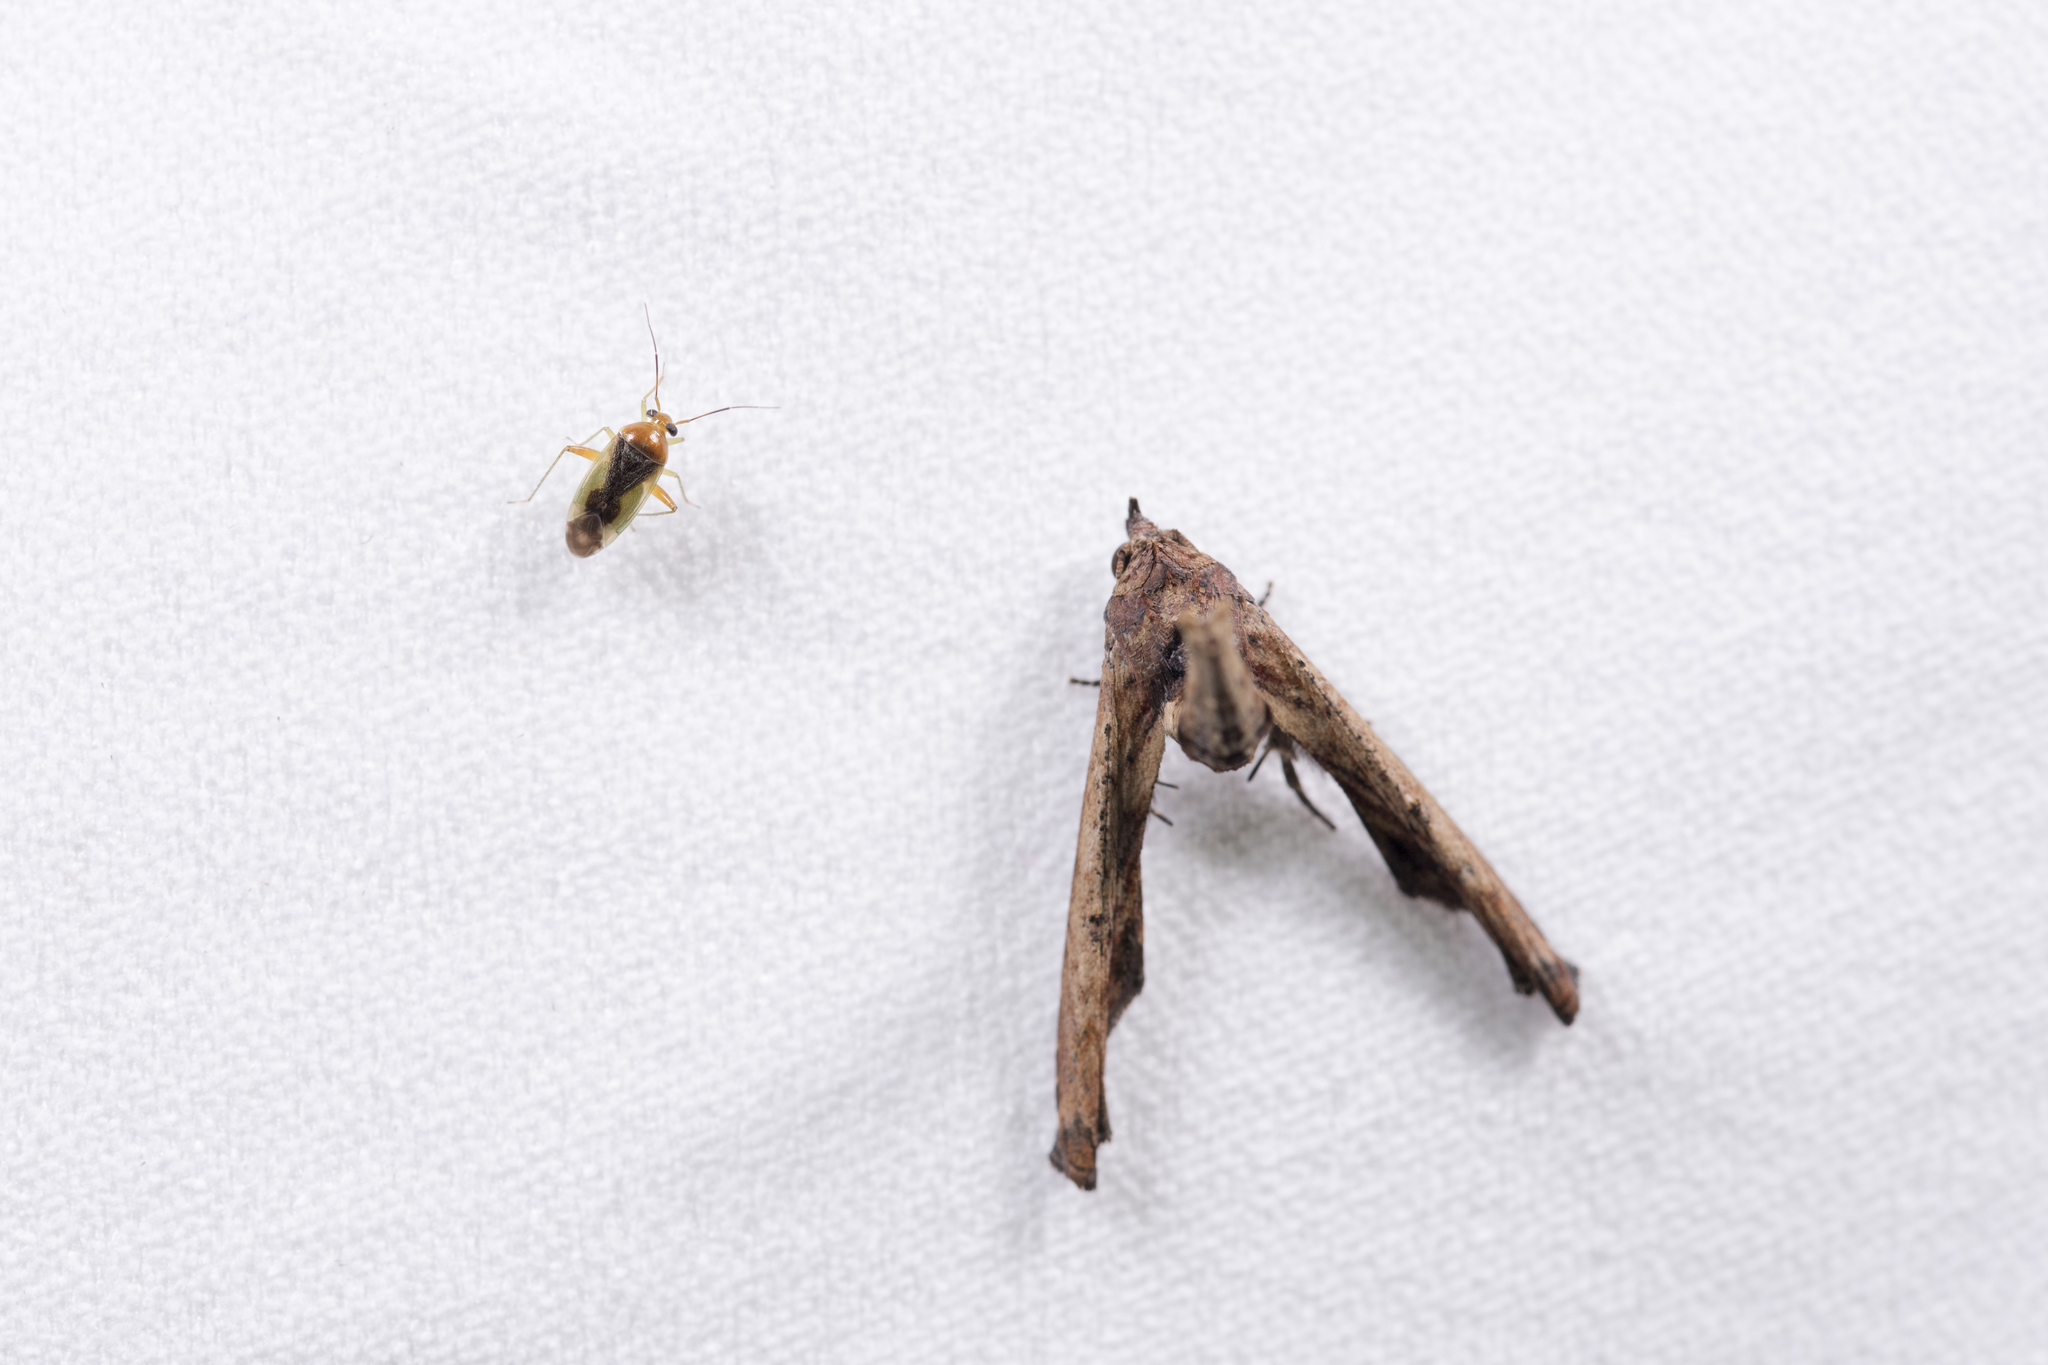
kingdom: Animalia
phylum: Arthropoda
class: Insecta
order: Lepidoptera
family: Euteliidae
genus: Anigraea
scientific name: Anigraea homochroa
